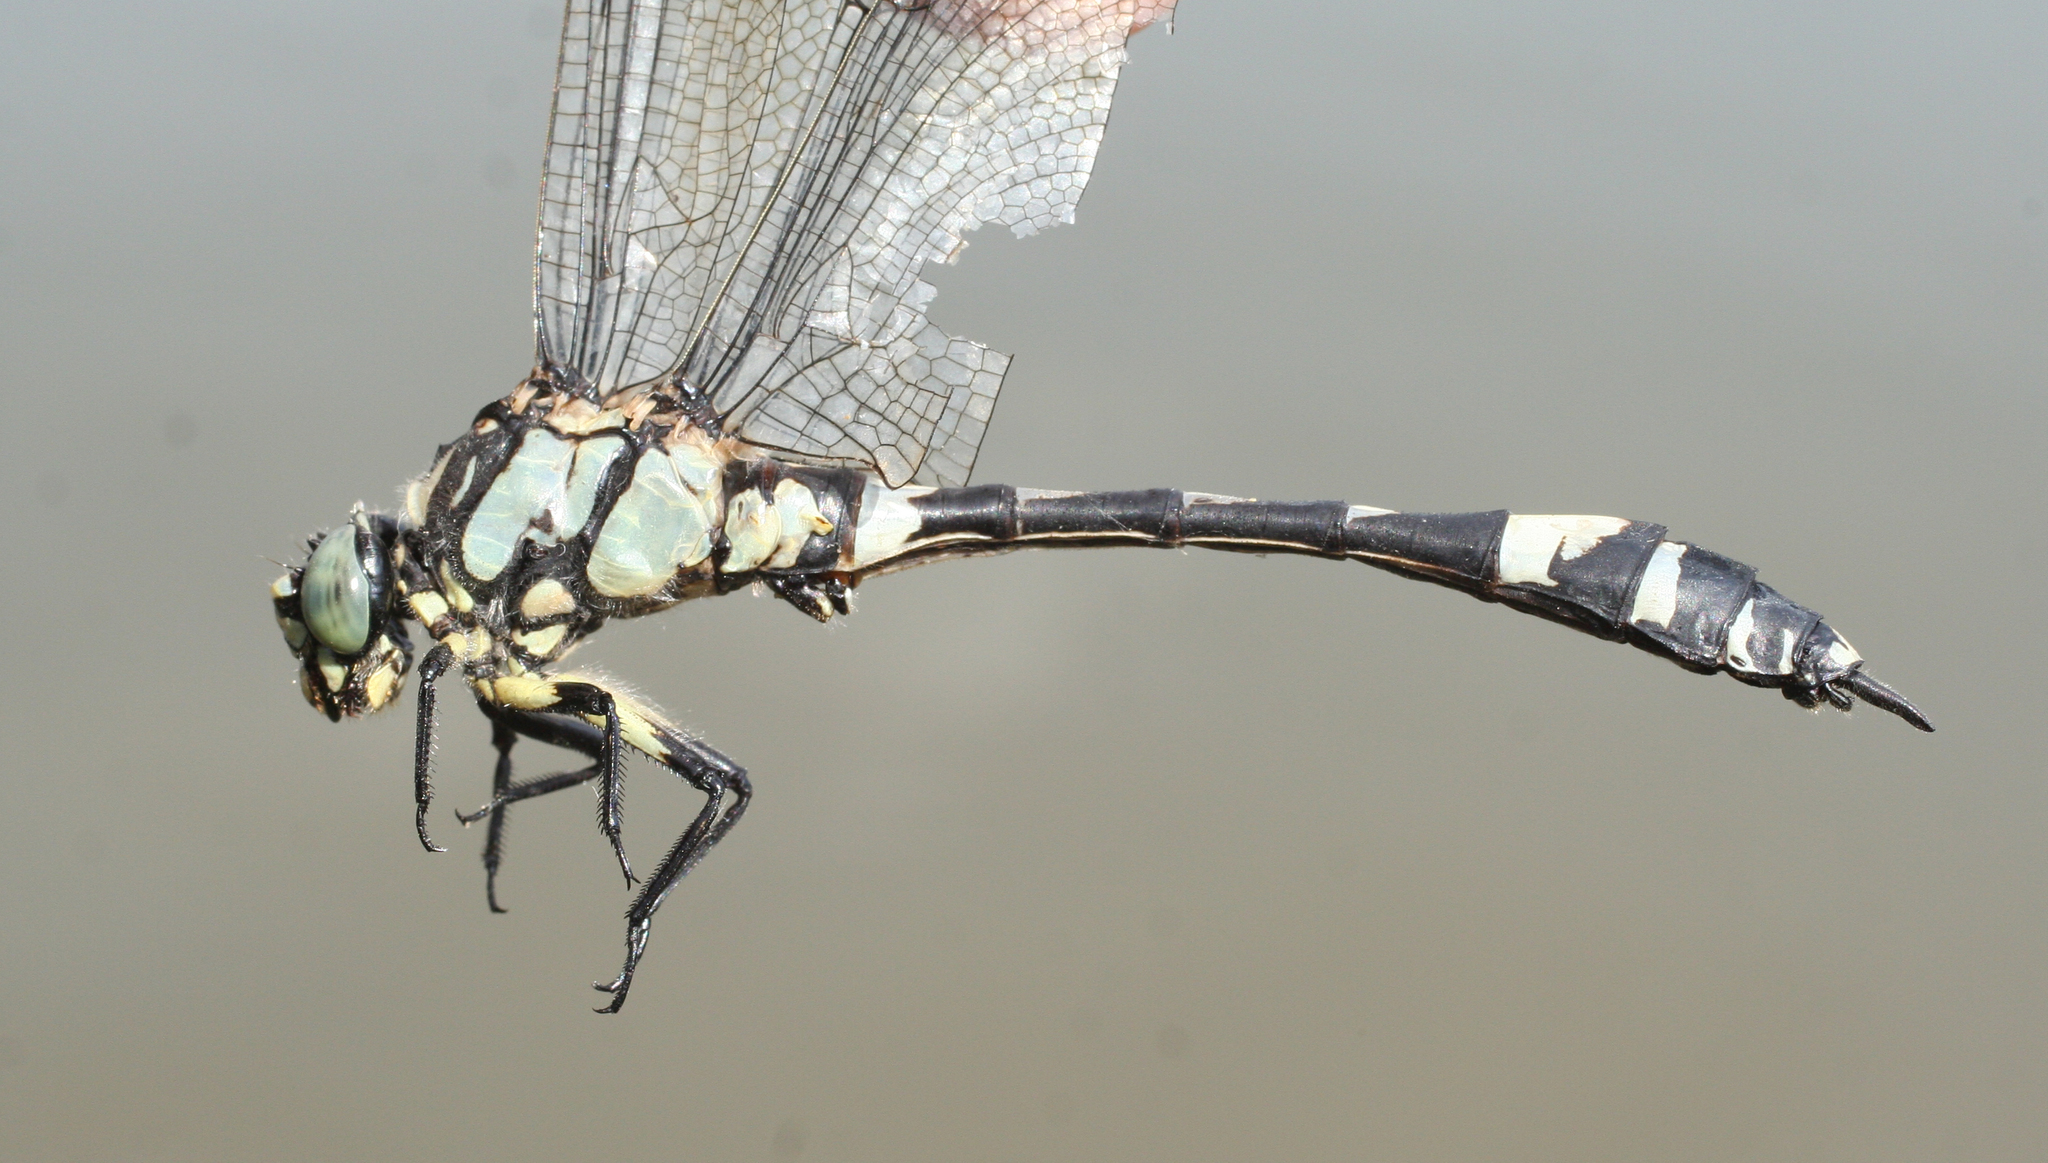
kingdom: Animalia
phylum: Arthropoda
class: Insecta
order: Odonata
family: Gomphidae
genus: Gomphidia
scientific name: Gomphidia confluens
